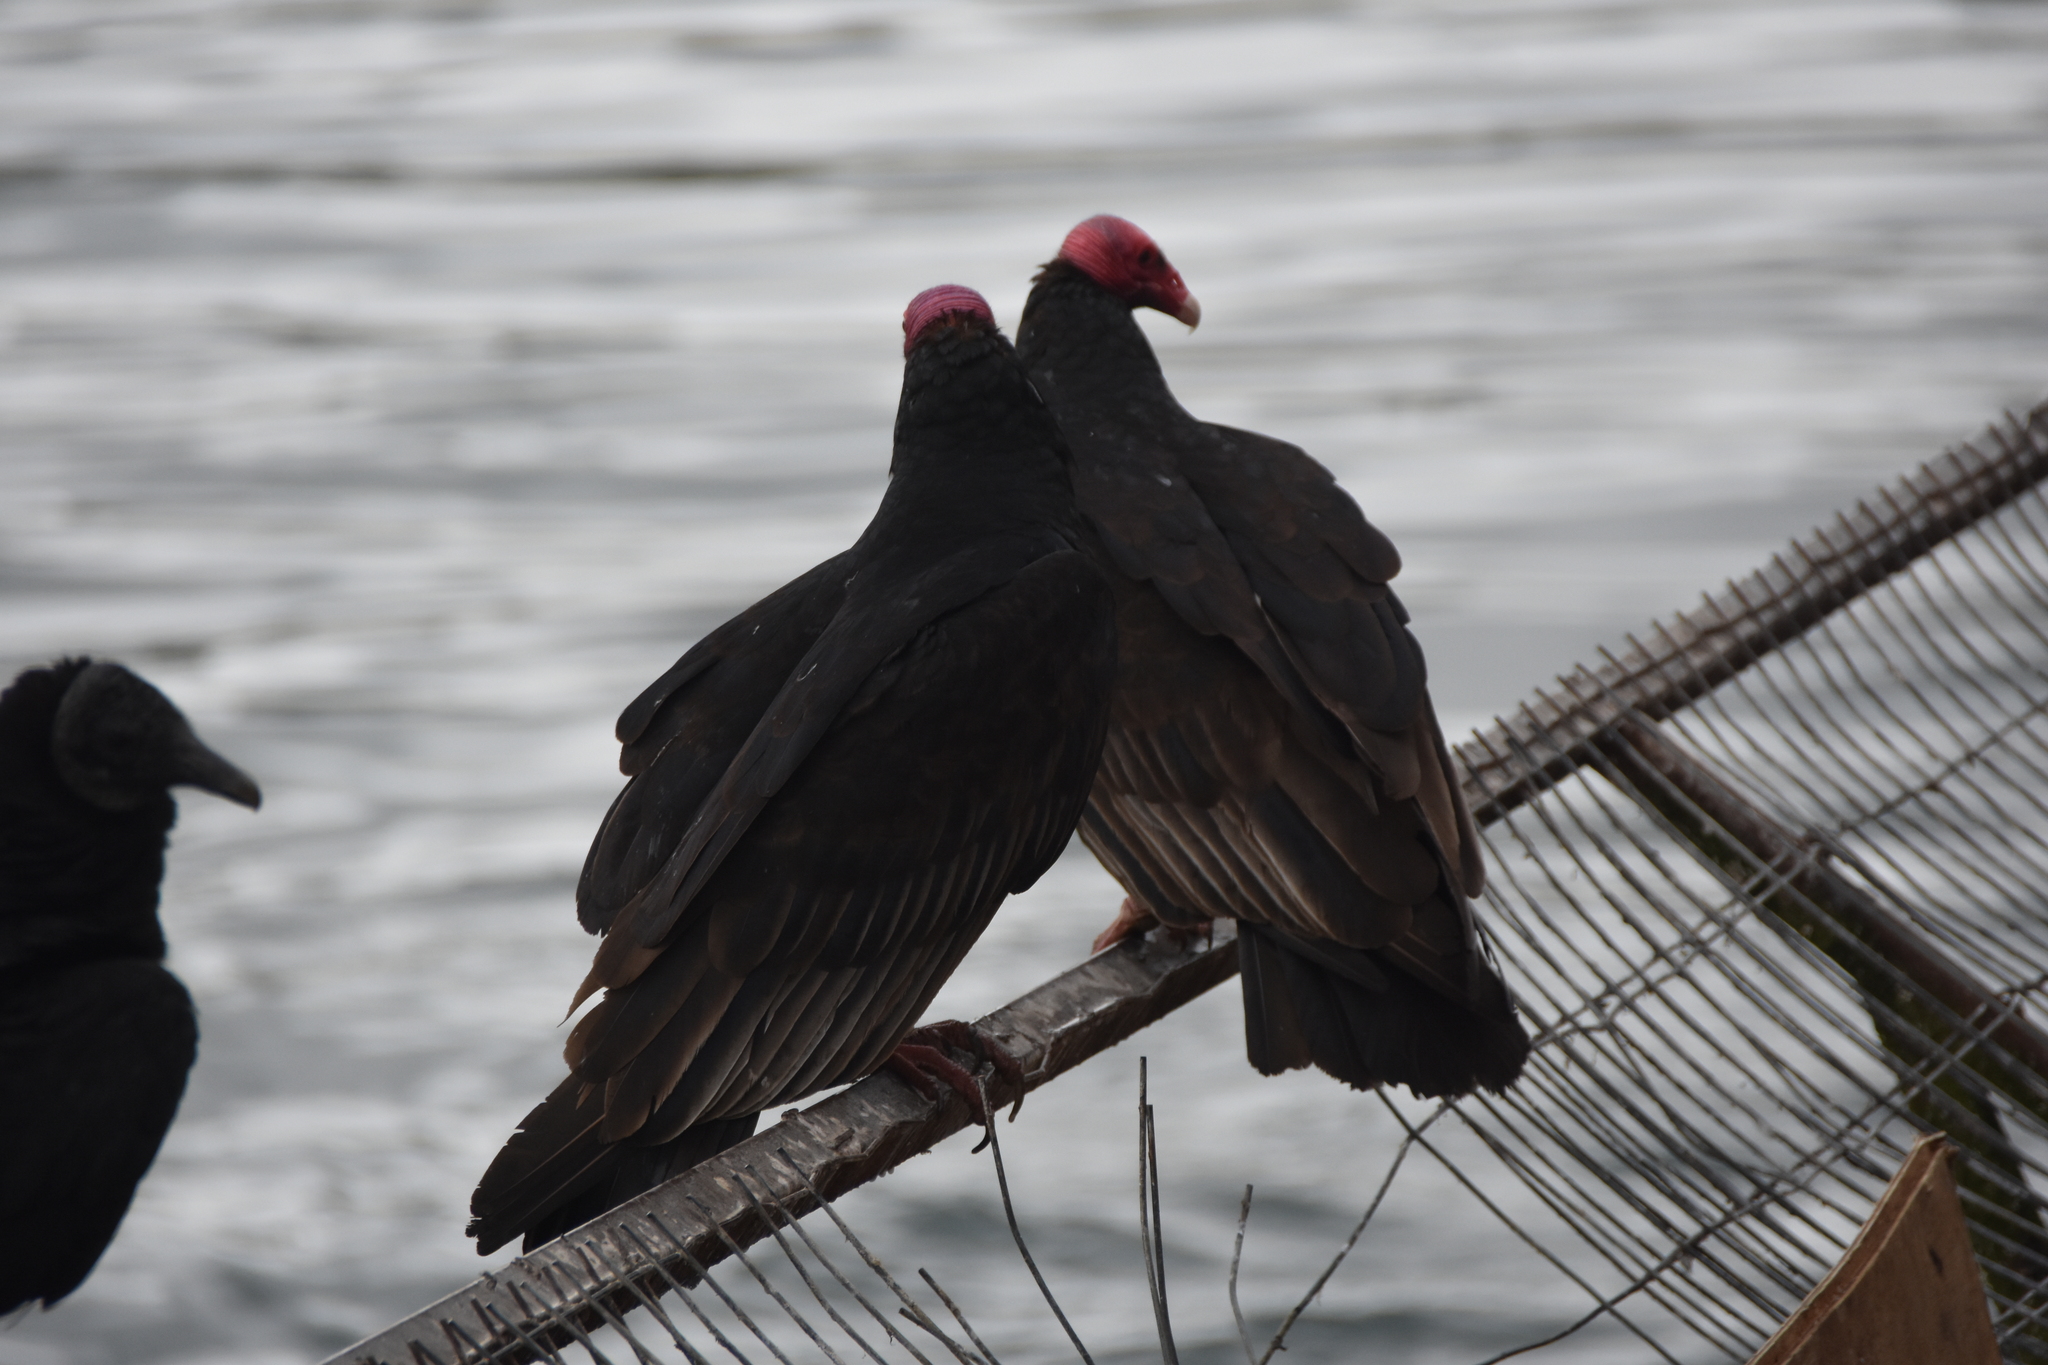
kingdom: Animalia
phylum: Chordata
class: Aves
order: Accipitriformes
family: Cathartidae
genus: Cathartes
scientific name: Cathartes aura
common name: Turkey vulture
